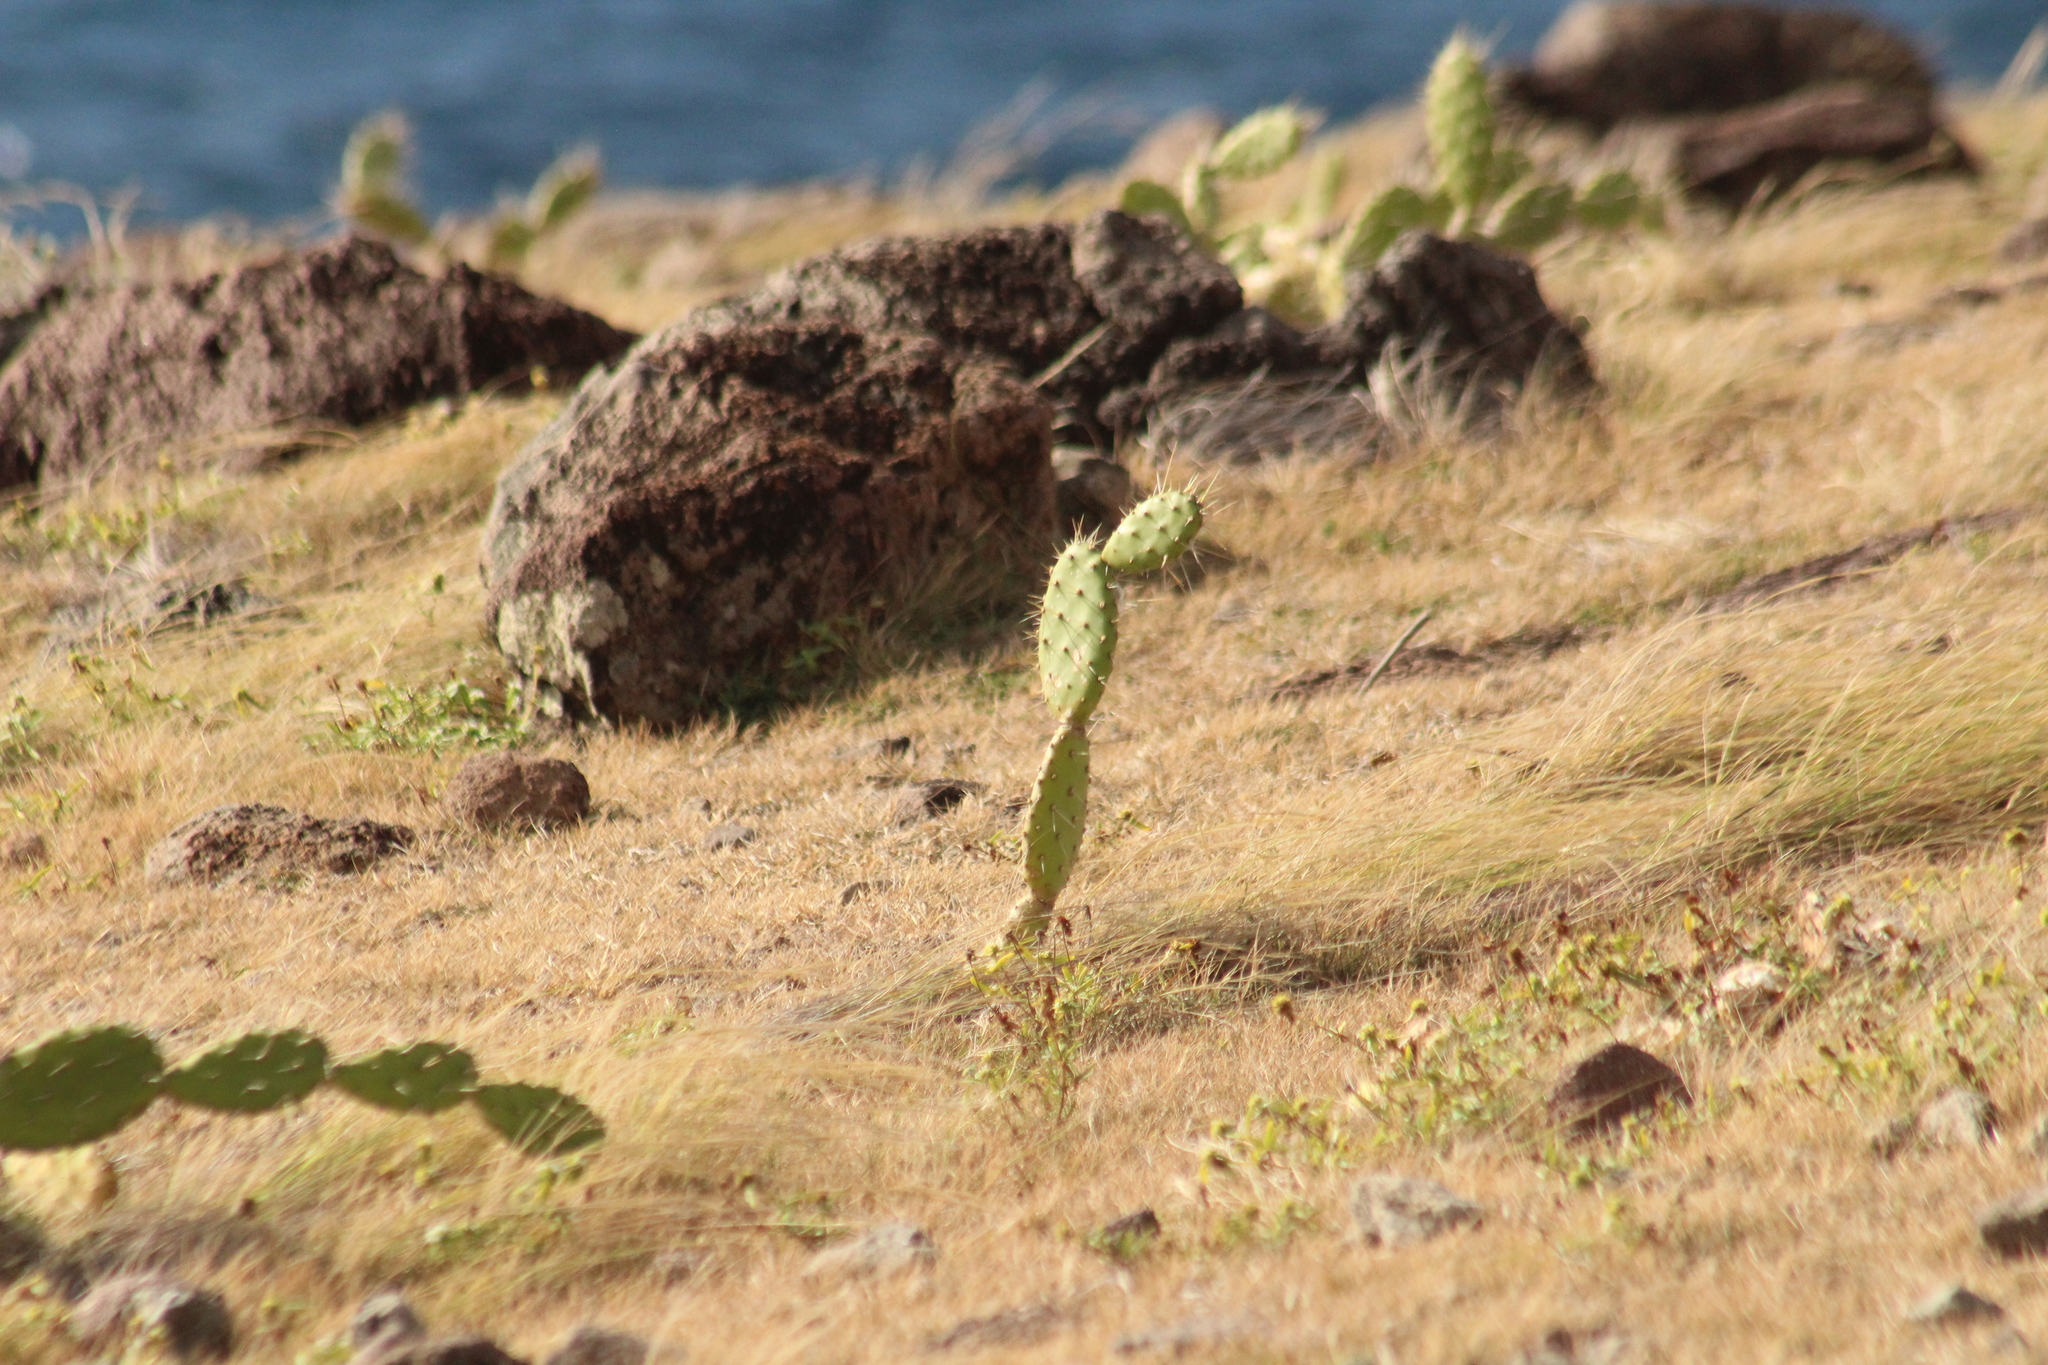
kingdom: Plantae
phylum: Tracheophyta
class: Magnoliopsida
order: Caryophyllales
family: Cactaceae
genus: Opuntia
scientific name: Opuntia triacanthos
